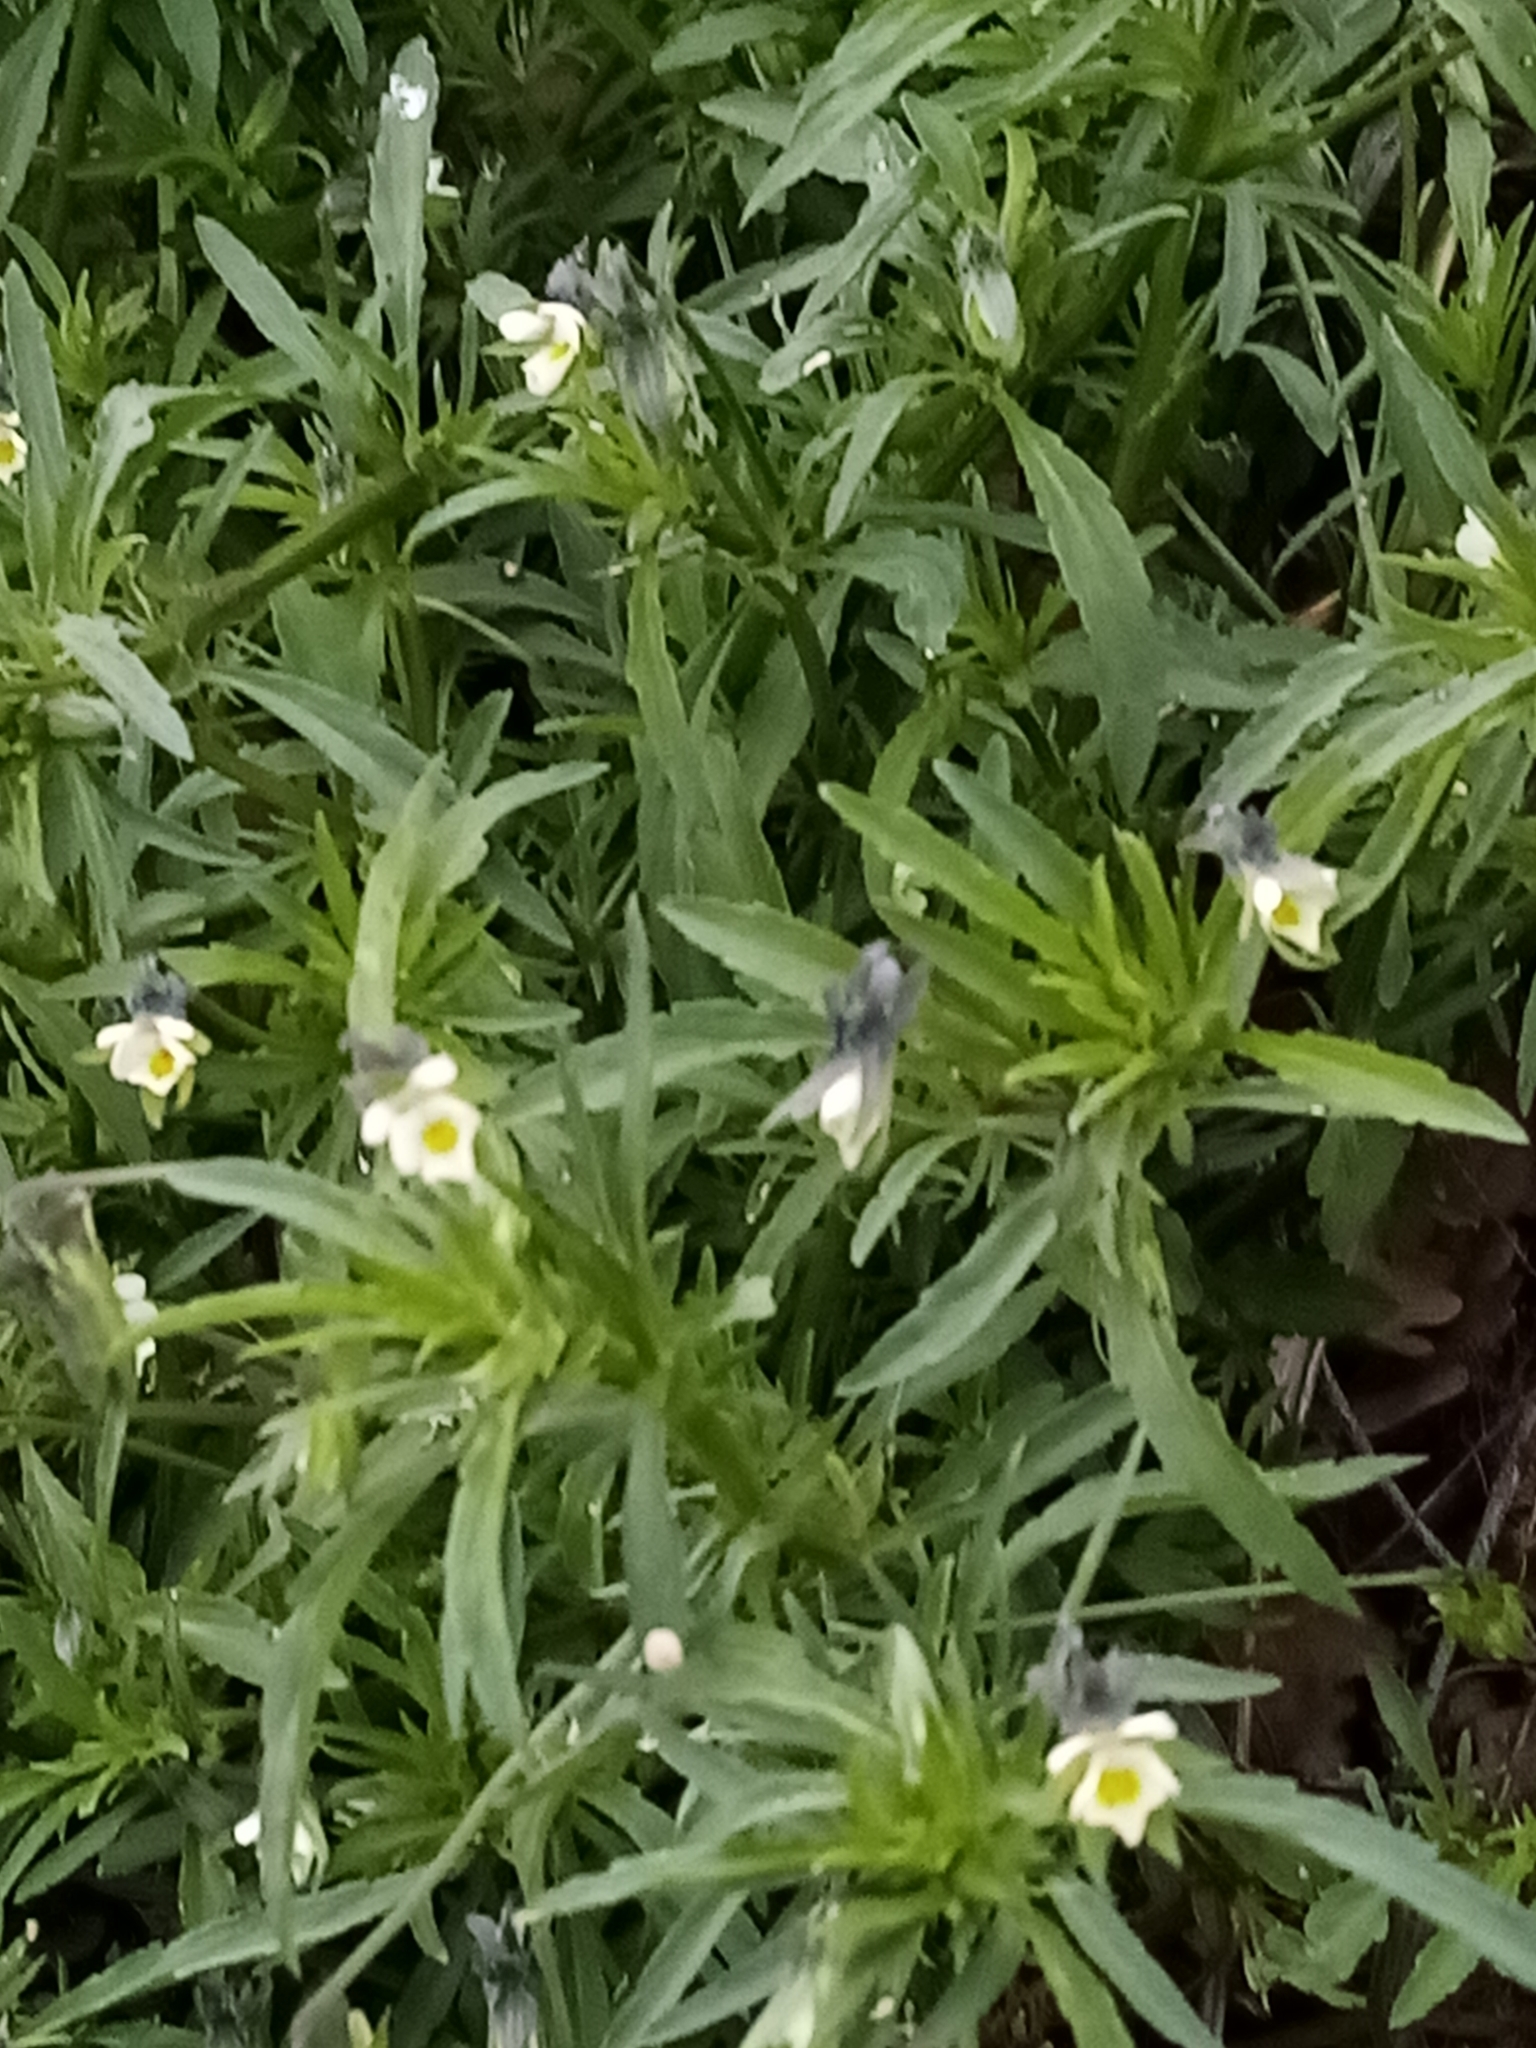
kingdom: Plantae
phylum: Tracheophyta
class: Magnoliopsida
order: Malpighiales
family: Violaceae
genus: Viola
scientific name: Viola arvensis
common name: Field pansy
